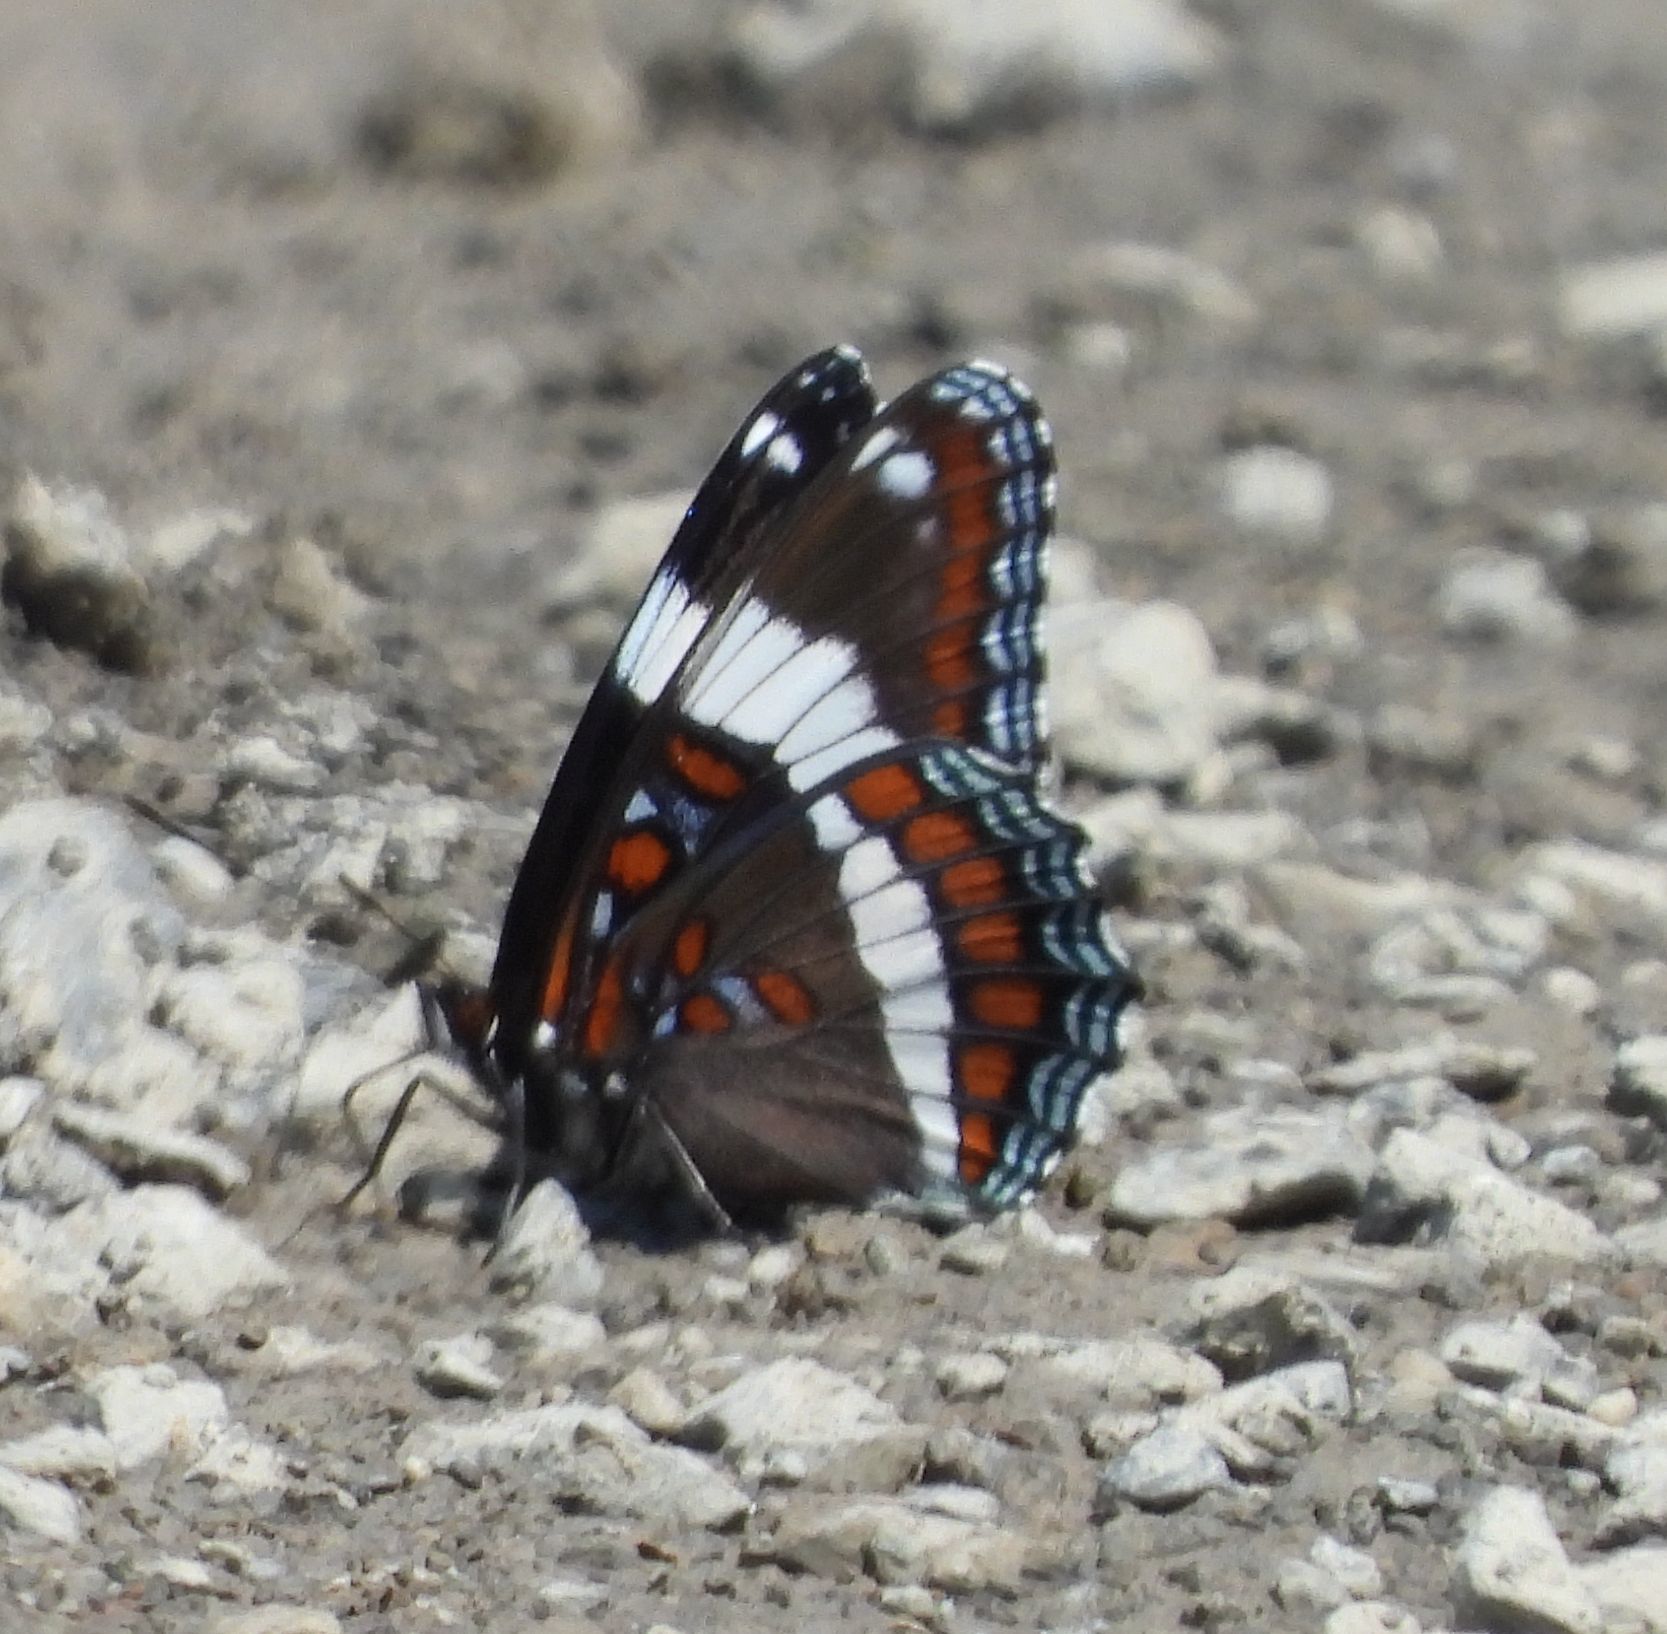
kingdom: Animalia
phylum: Arthropoda
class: Insecta
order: Lepidoptera
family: Nymphalidae
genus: Limenitis
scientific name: Limenitis arthemis
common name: Red-spotted admiral
